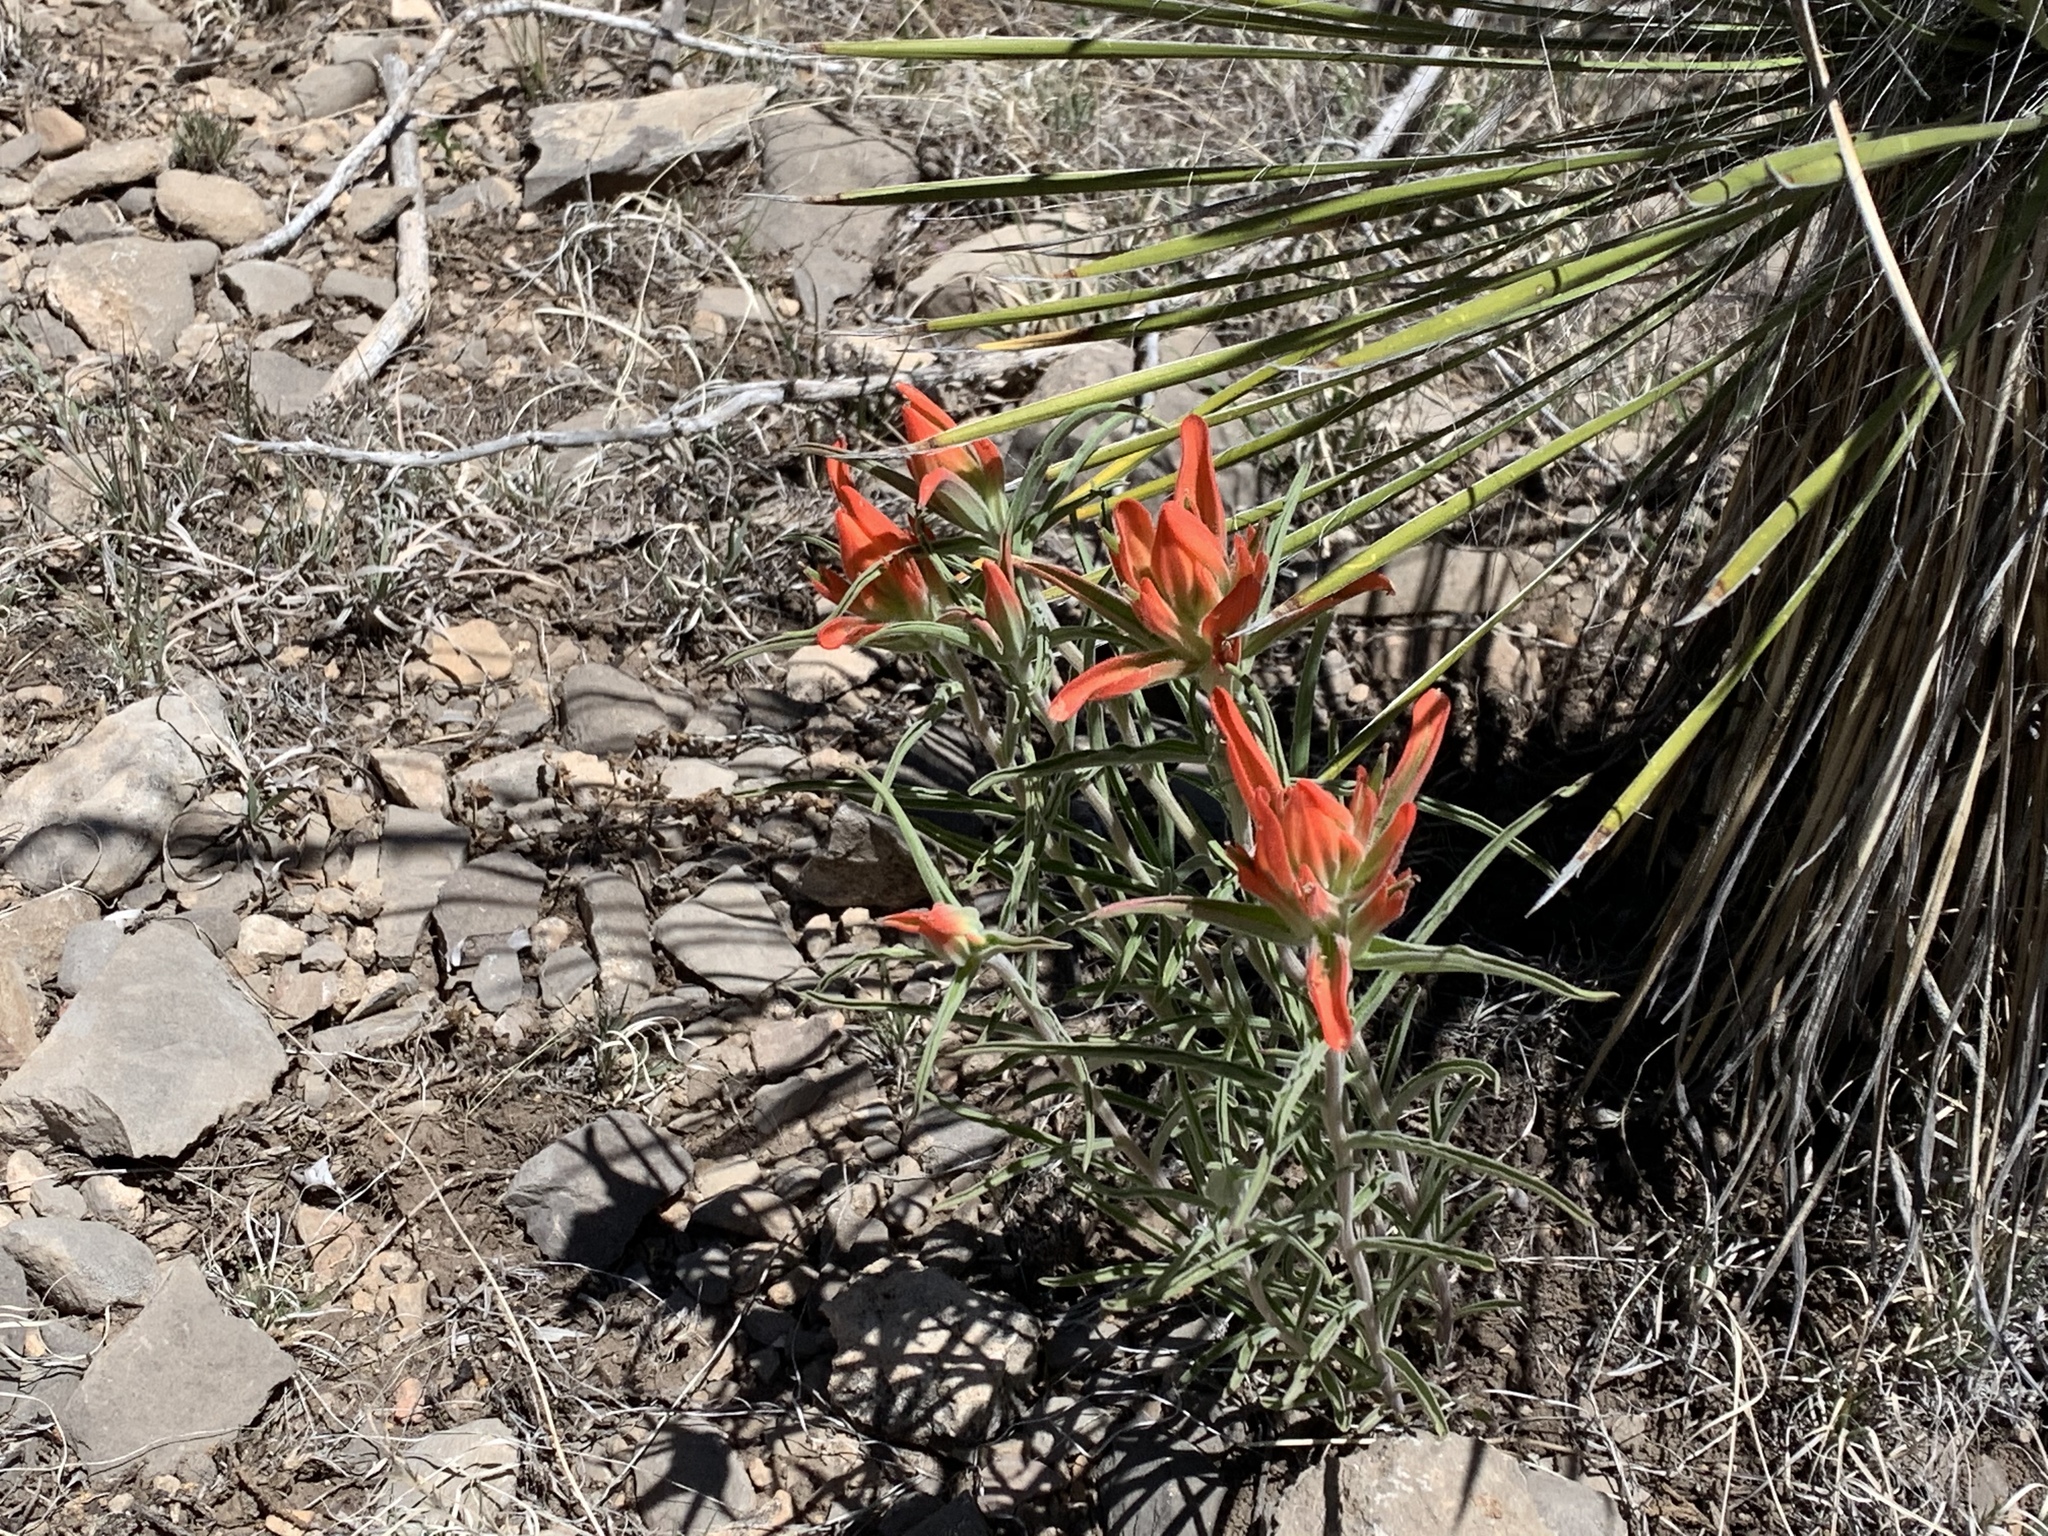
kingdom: Plantae
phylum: Tracheophyta
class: Magnoliopsida
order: Lamiales
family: Orobanchaceae
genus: Castilleja
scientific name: Castilleja integra
